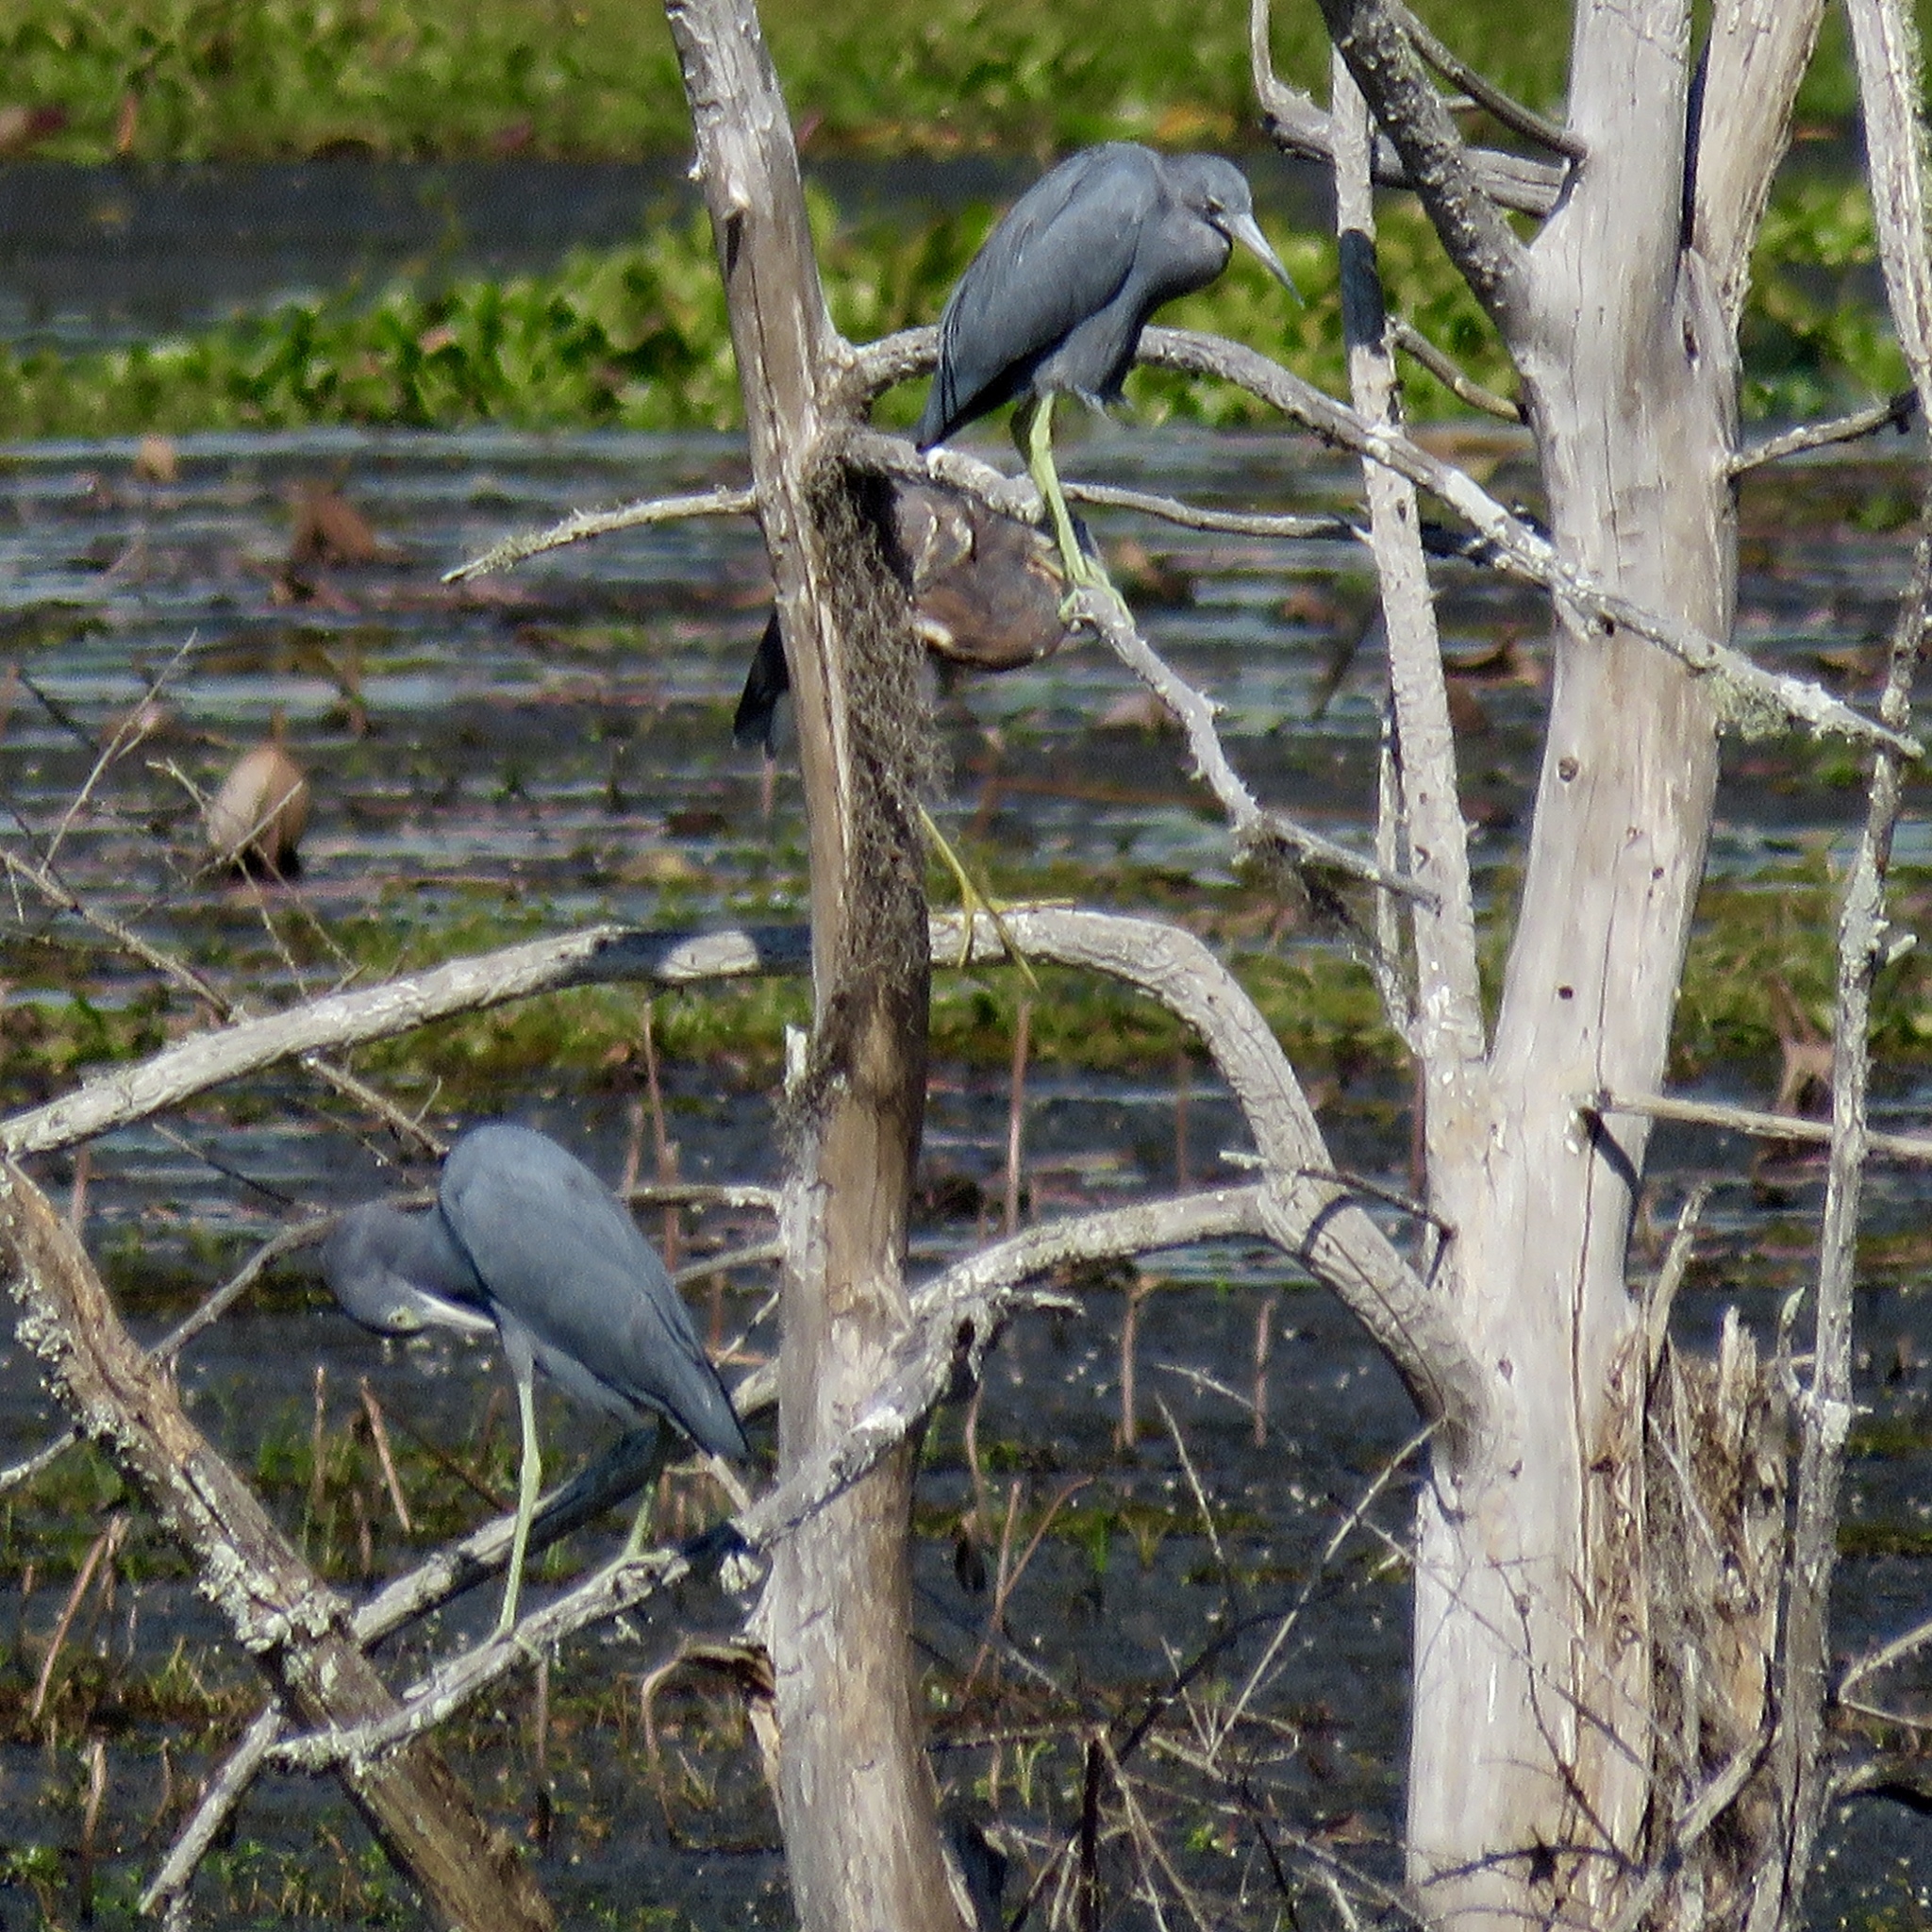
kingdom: Animalia
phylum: Chordata
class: Aves
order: Pelecaniformes
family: Ardeidae
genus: Egretta
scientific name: Egretta caerulea
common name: Little blue heron
